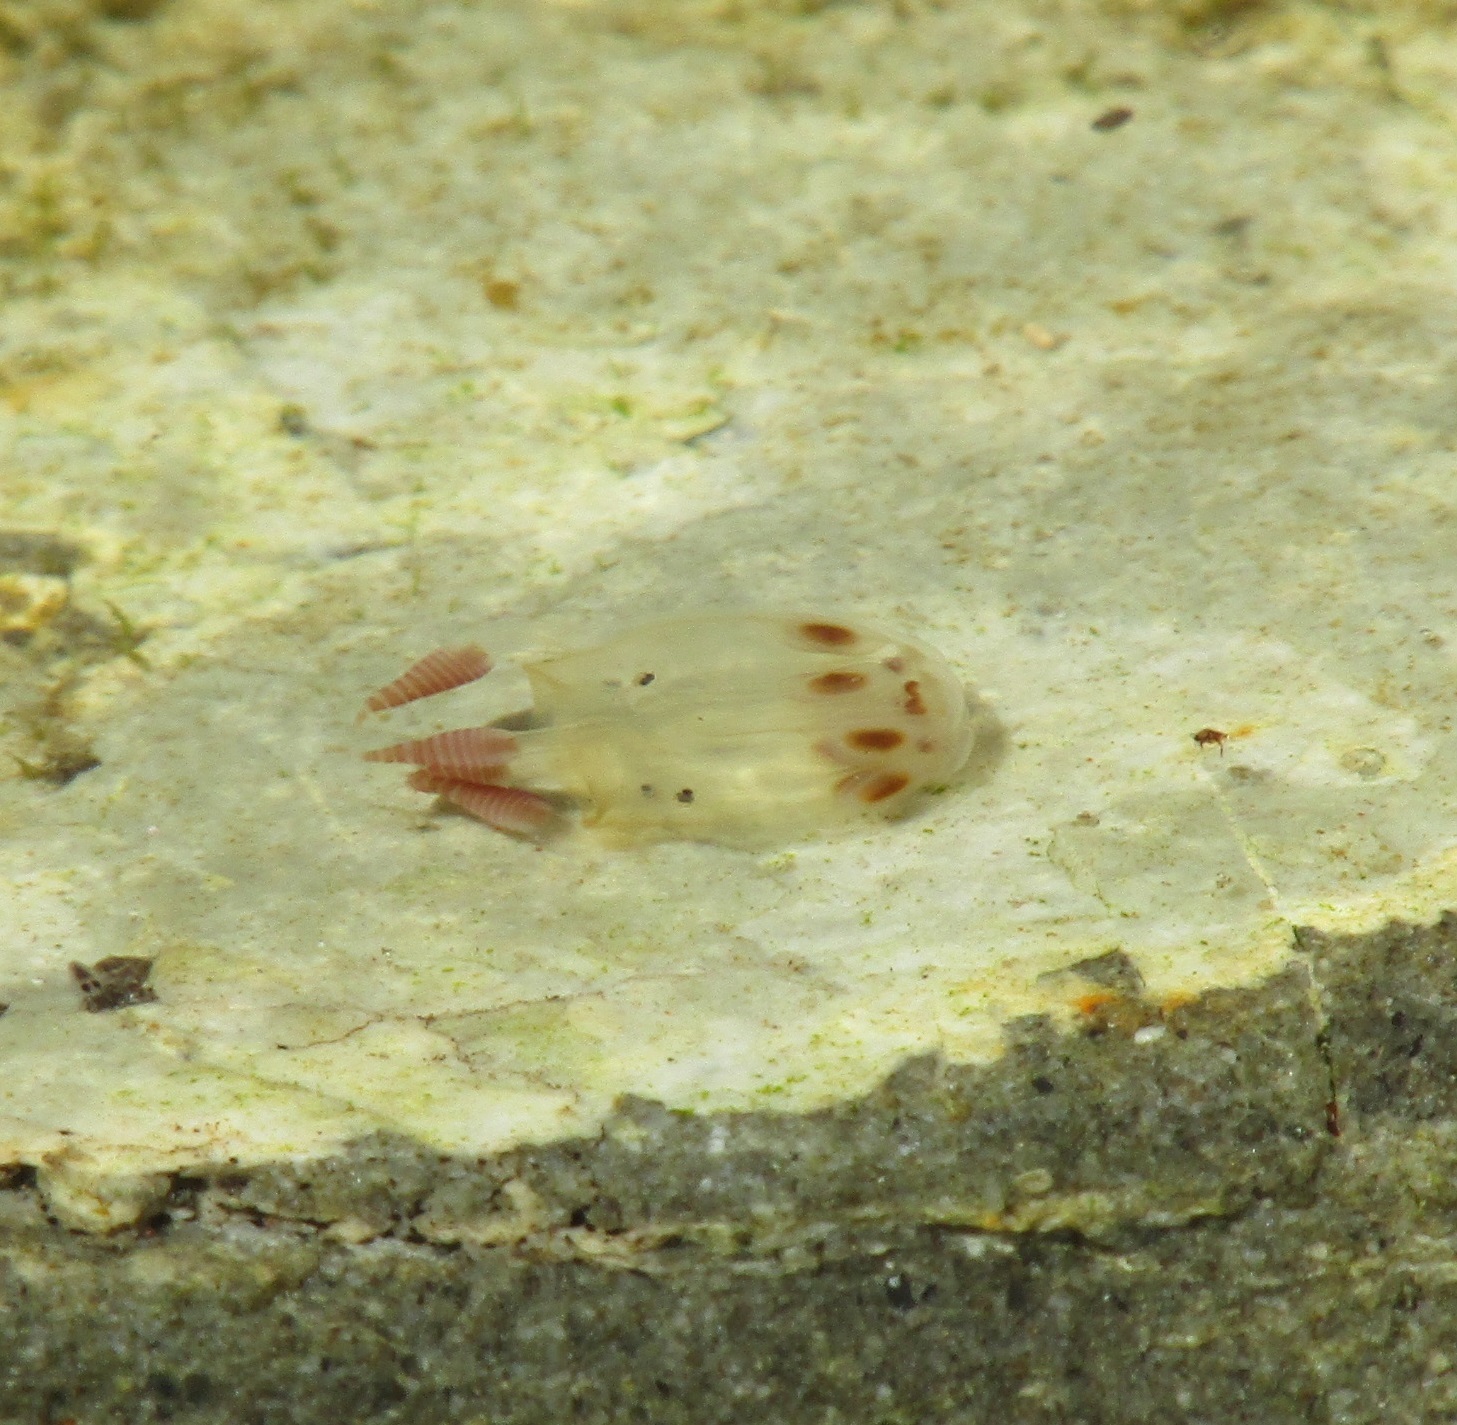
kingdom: Animalia
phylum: Cnidaria
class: Cubozoa
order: Carybdeida
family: Tripedaliidae
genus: Copula
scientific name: Copula sivickisi
